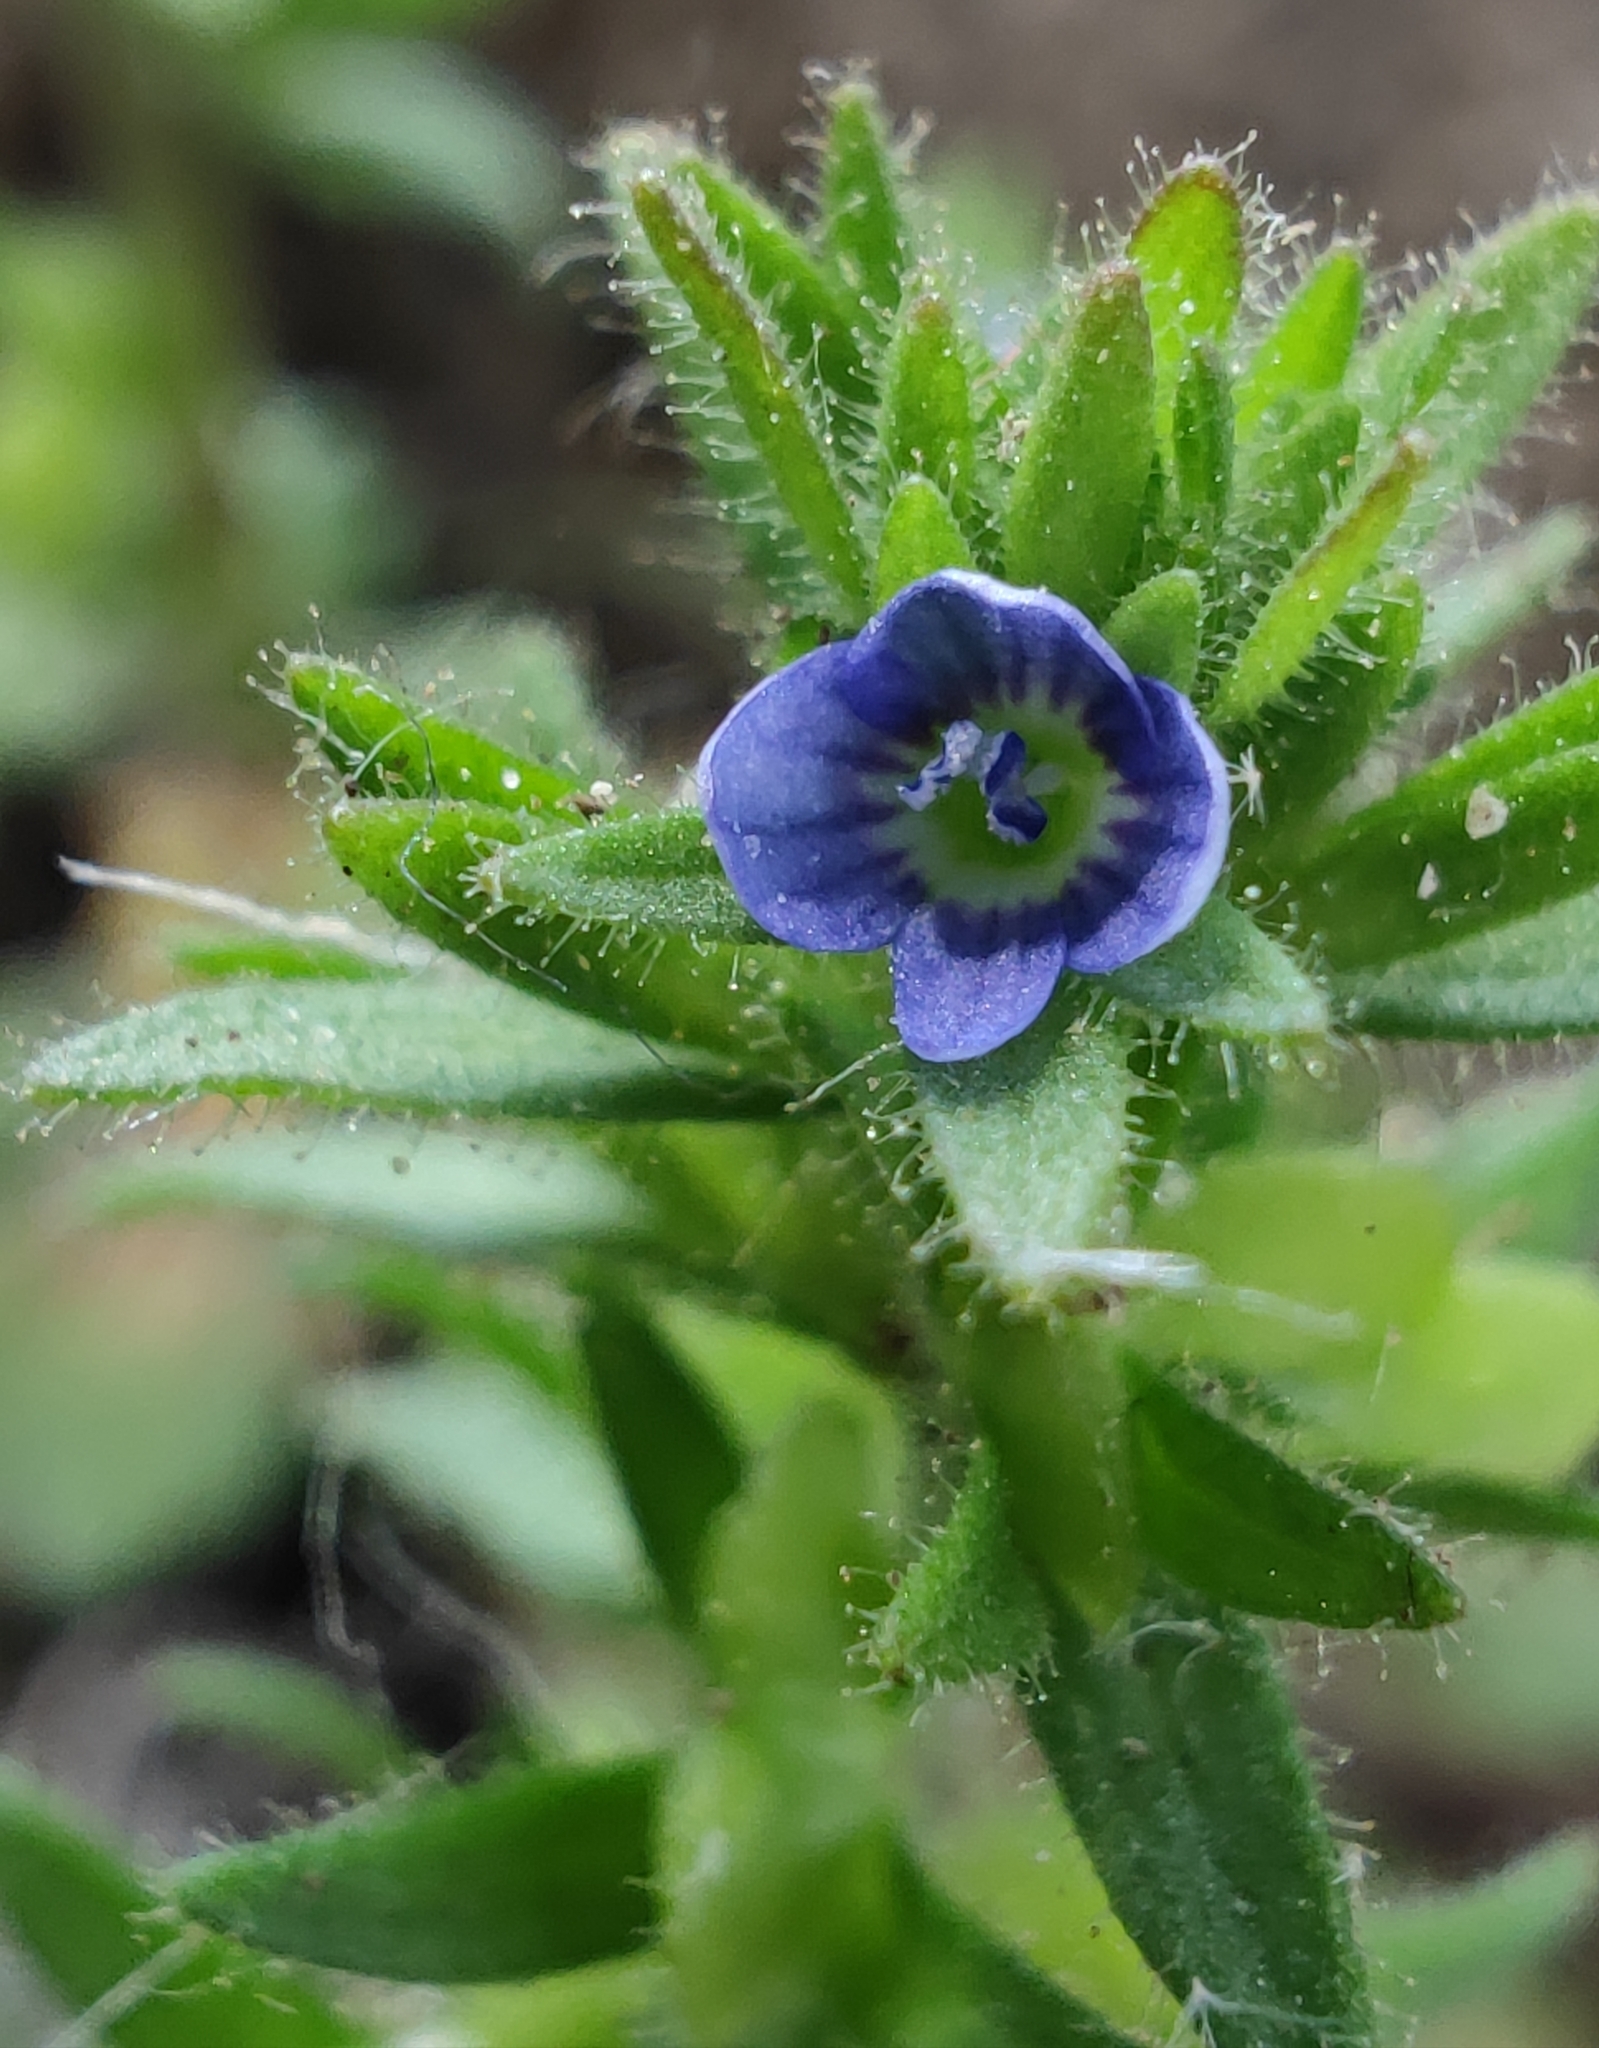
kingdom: Plantae
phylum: Tracheophyta
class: Magnoliopsida
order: Lamiales
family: Plantaginaceae
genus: Veronica
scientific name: Veronica arvensis
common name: Corn speedwell
